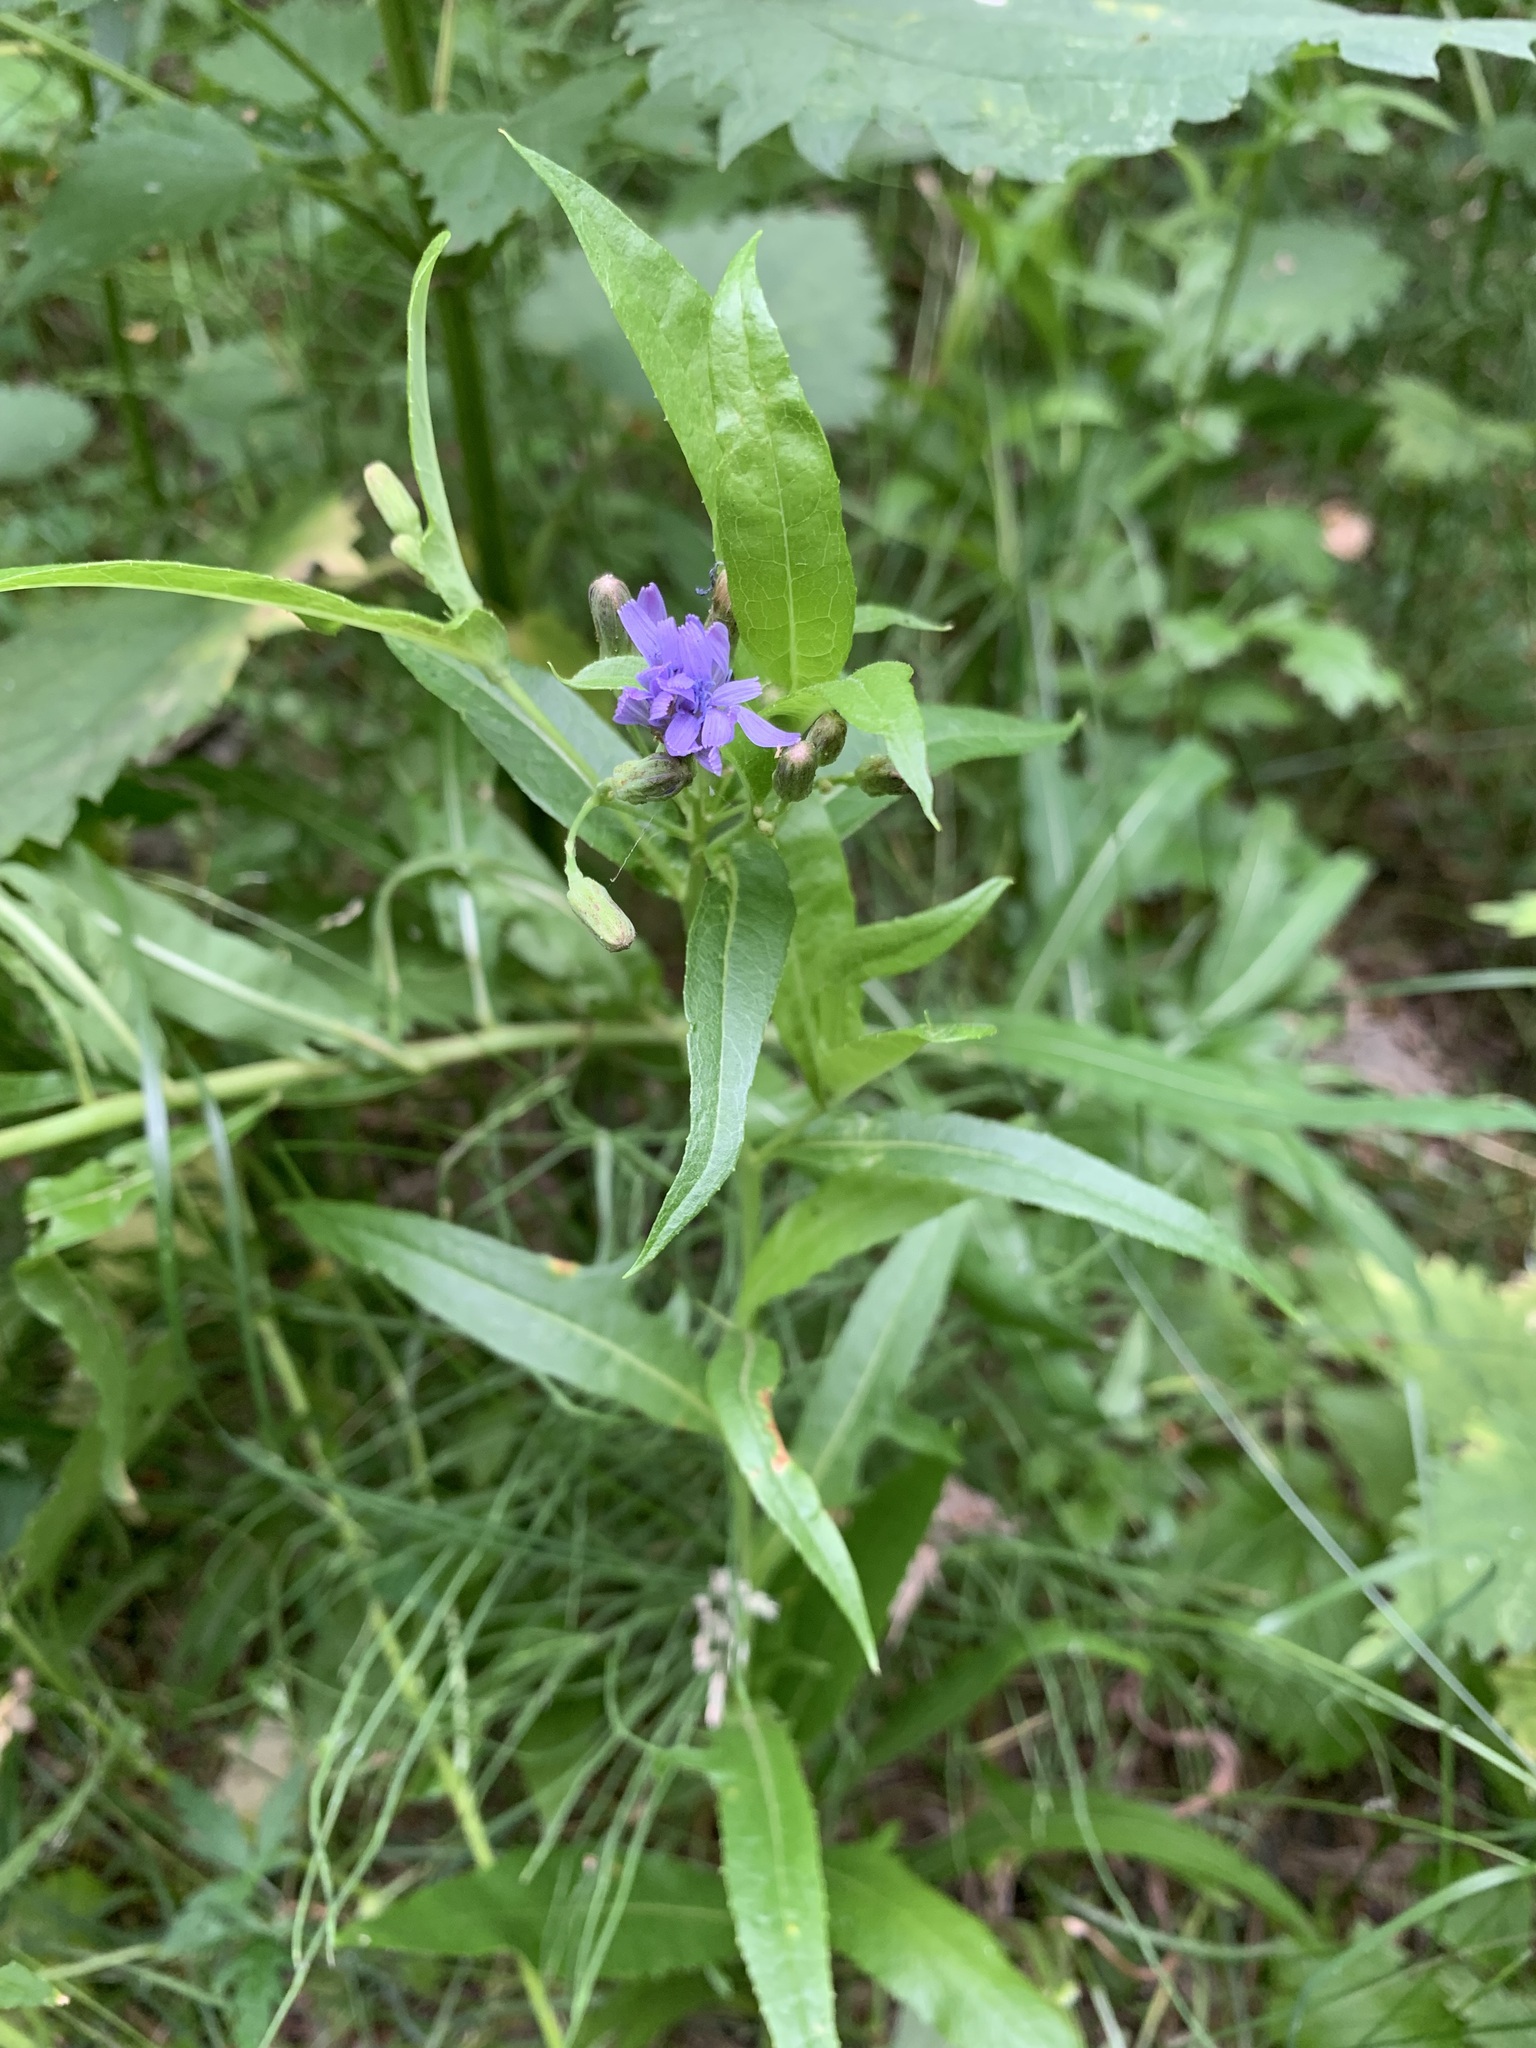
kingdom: Plantae
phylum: Tracheophyta
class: Magnoliopsida
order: Asterales
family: Asteraceae
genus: Lactuca
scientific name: Lactuca sibirica
